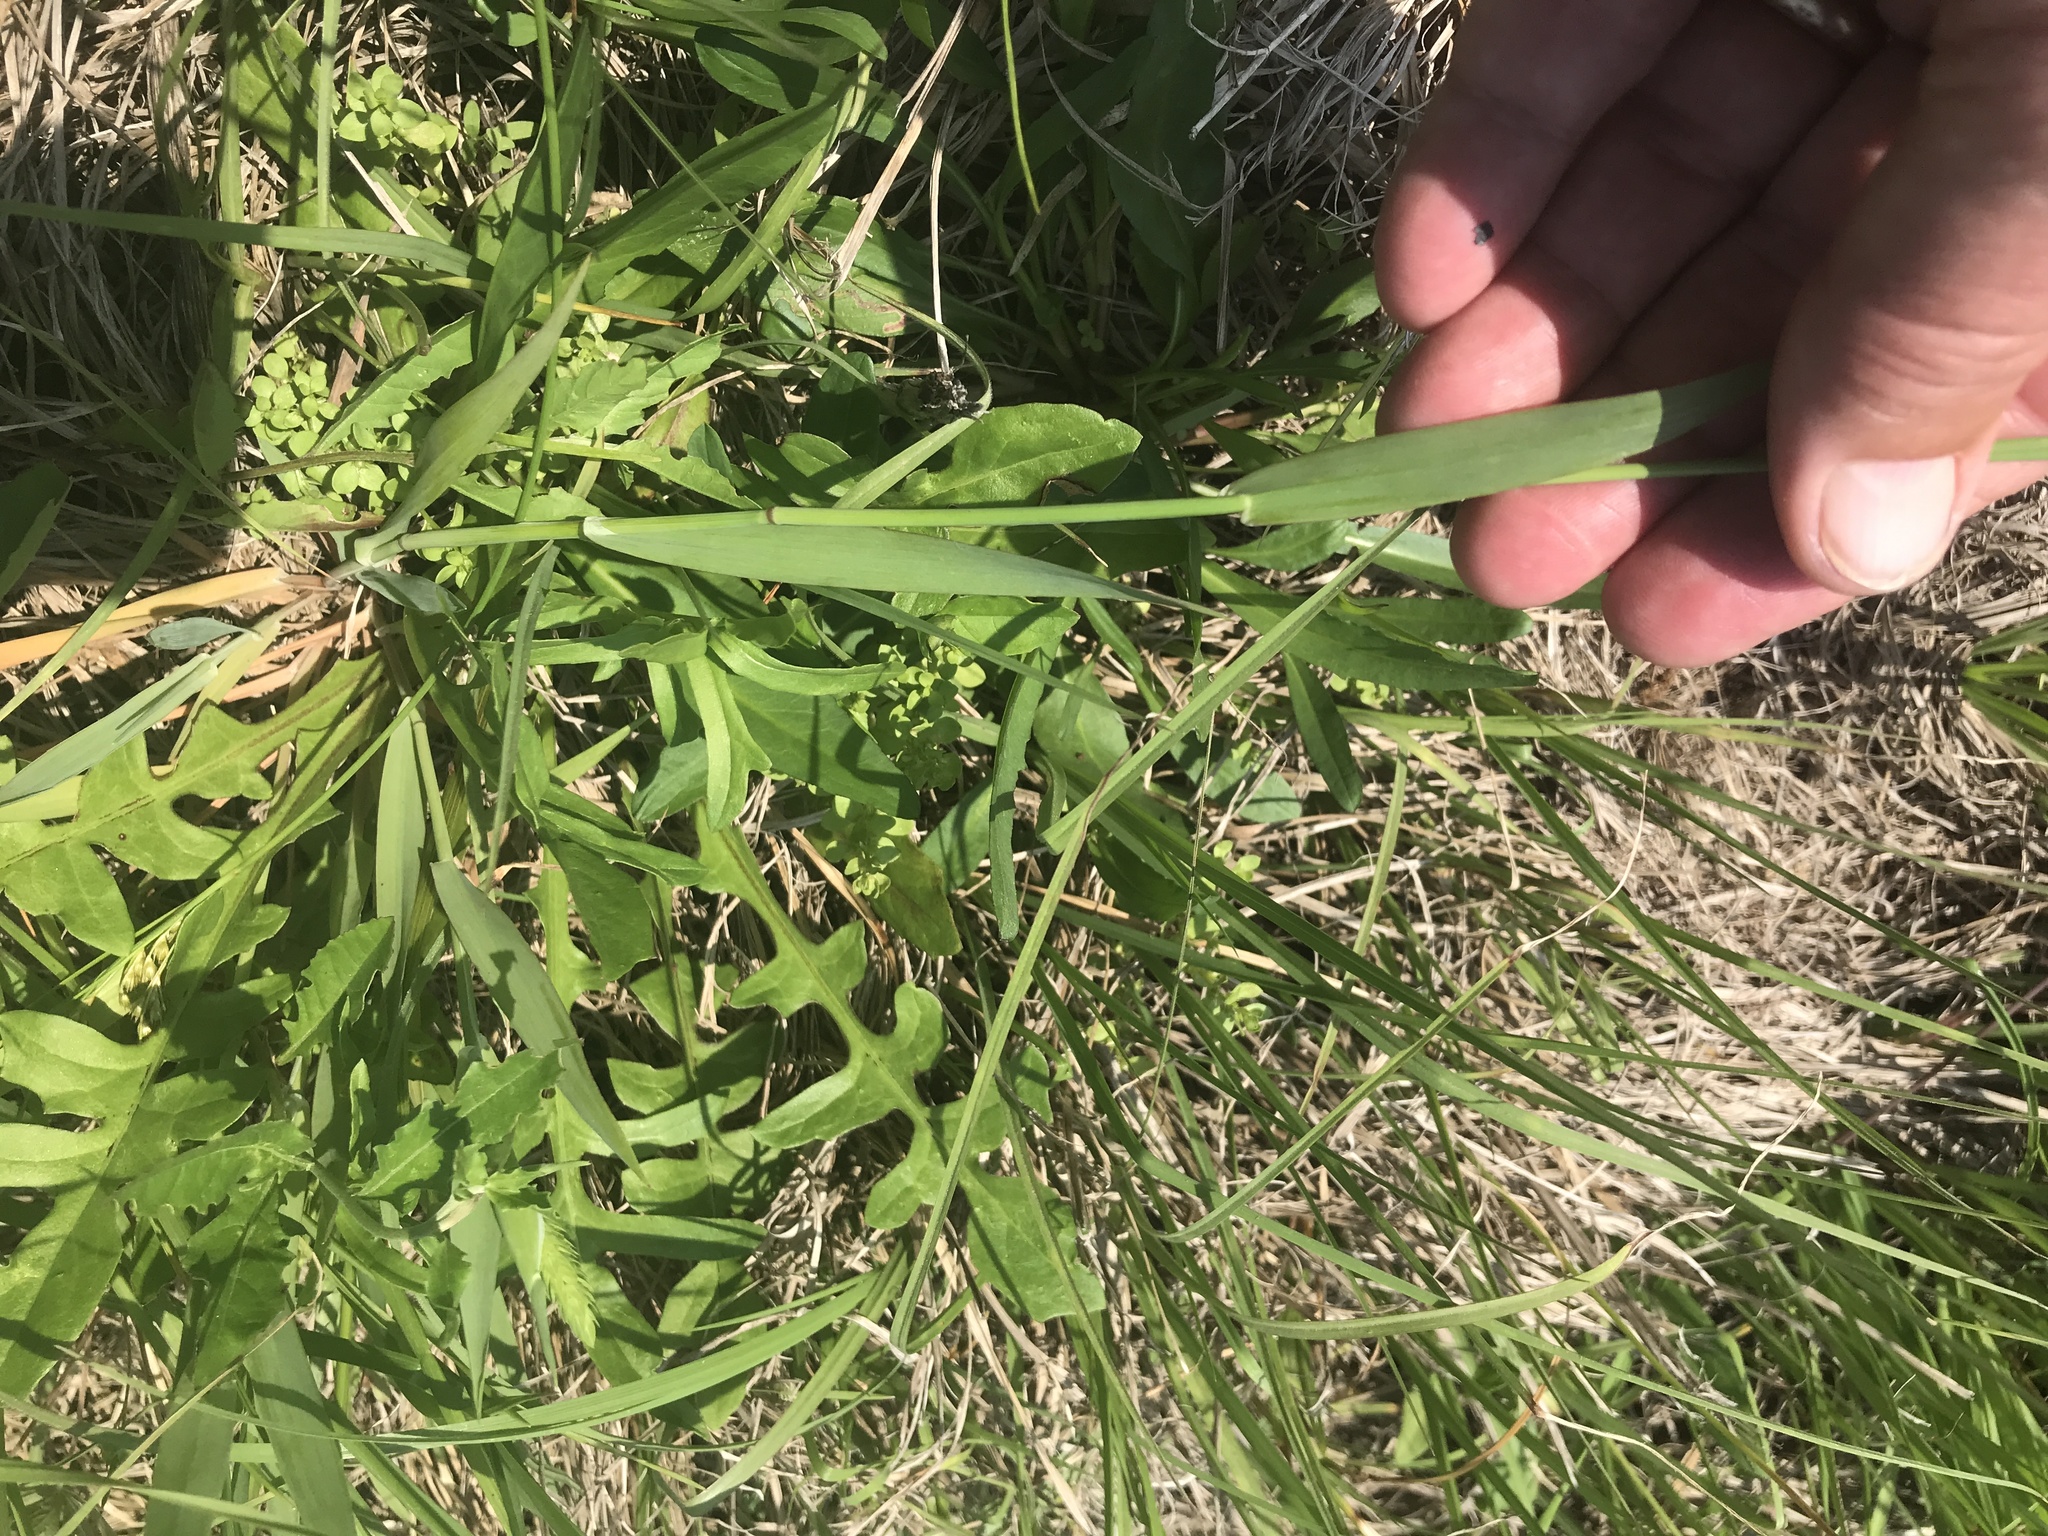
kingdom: Plantae
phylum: Tracheophyta
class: Liliopsida
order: Poales
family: Poaceae
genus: Phalaris
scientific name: Phalaris caroliniana
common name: May grass
